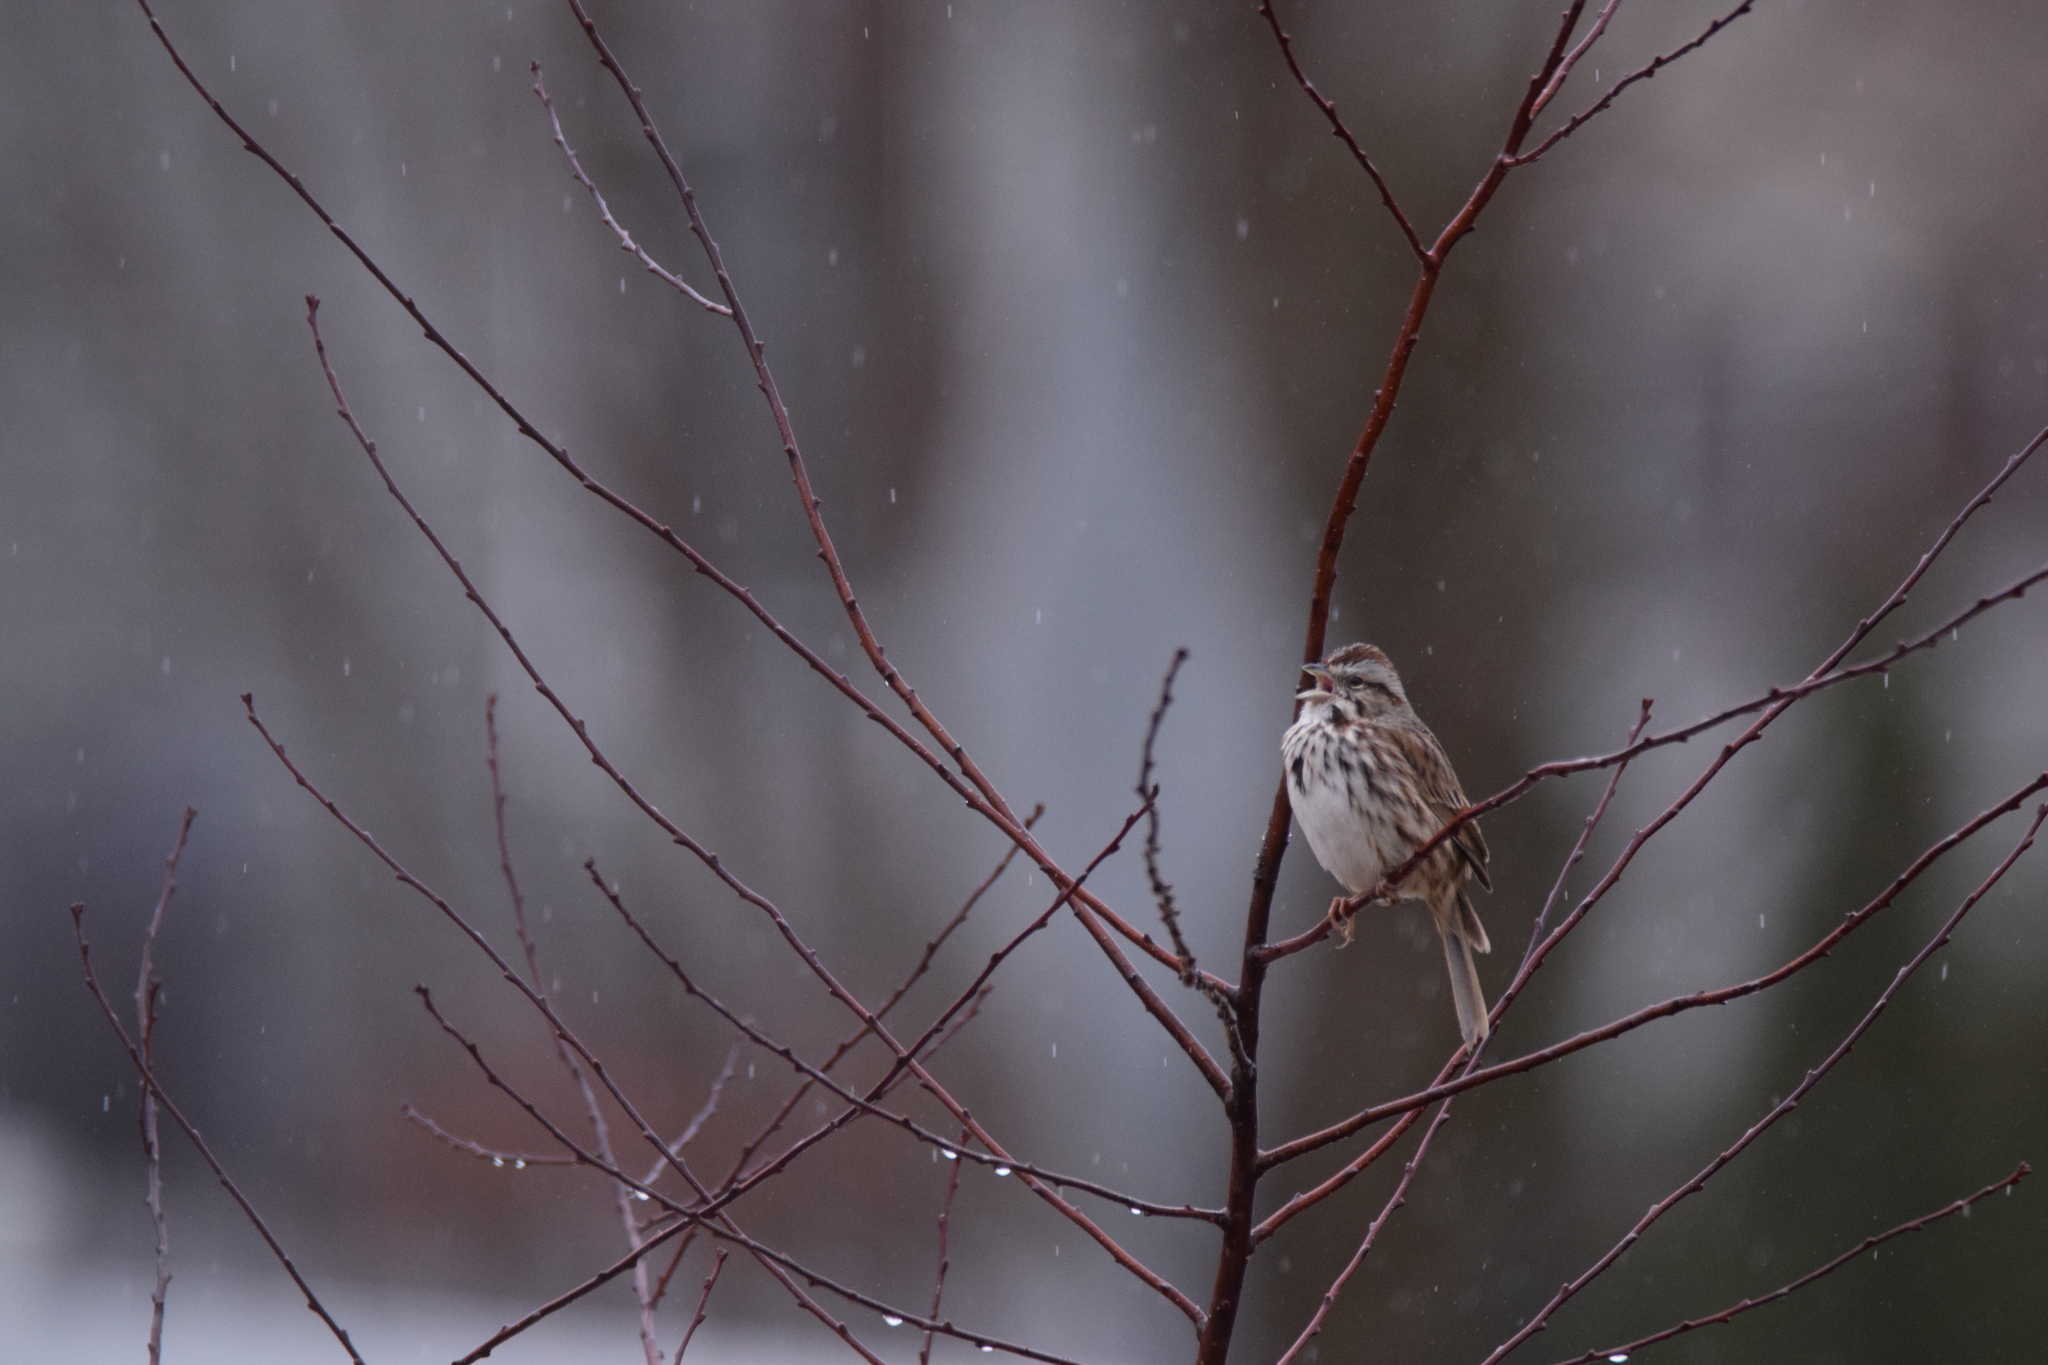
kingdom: Animalia
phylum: Chordata
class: Aves
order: Passeriformes
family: Passerellidae
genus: Melospiza
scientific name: Melospiza melodia
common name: Song sparrow
